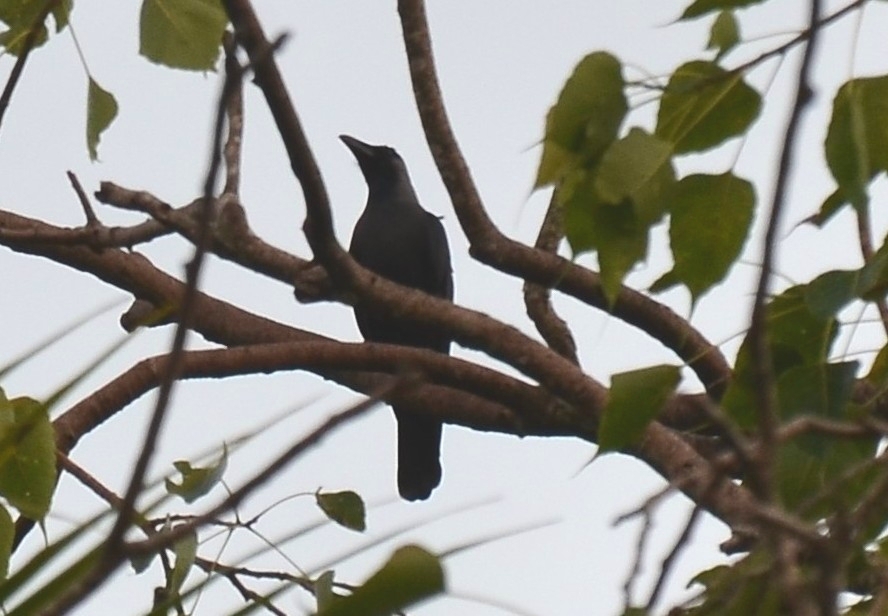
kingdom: Animalia
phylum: Chordata
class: Aves
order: Passeriformes
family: Corvidae
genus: Corvus
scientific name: Corvus splendens
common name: House crow
